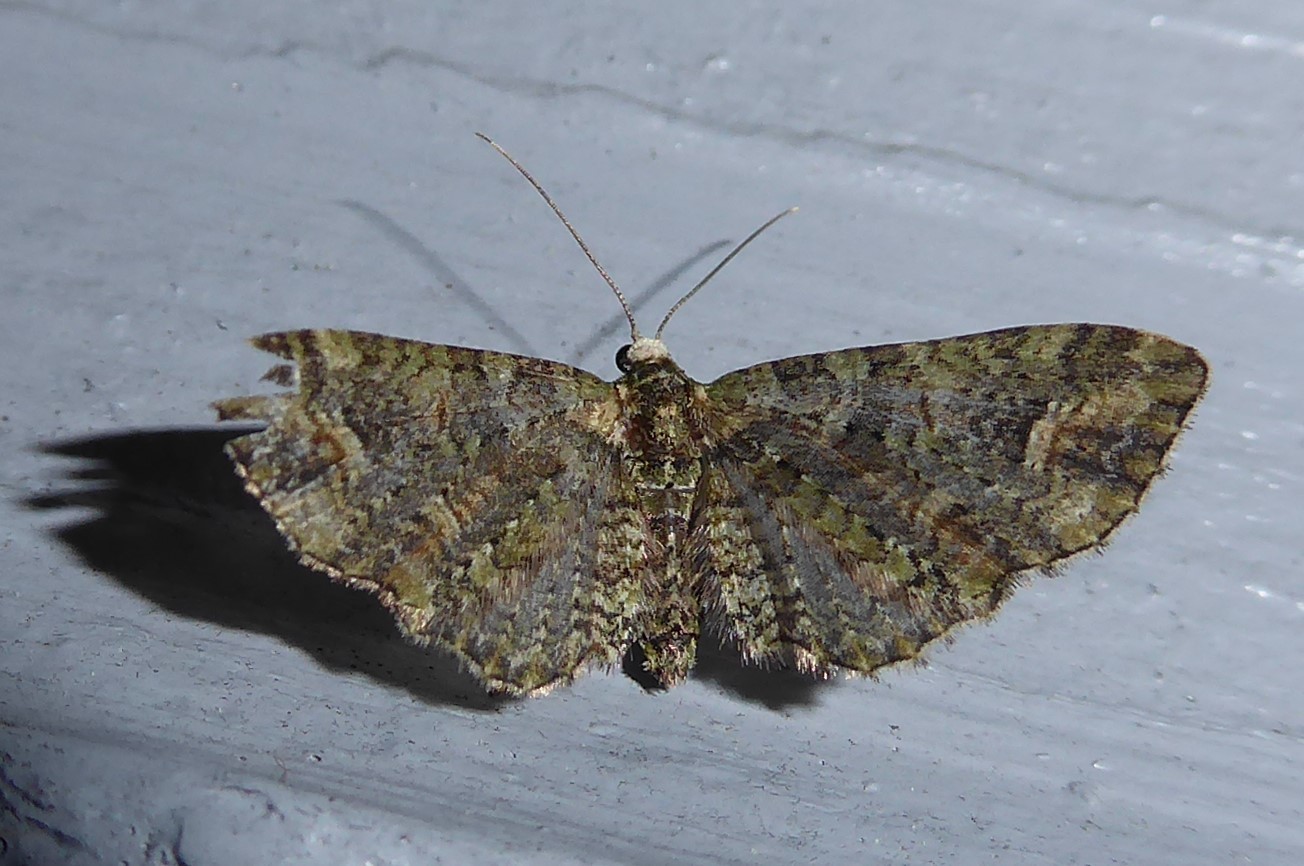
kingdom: Animalia
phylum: Arthropoda
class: Insecta
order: Lepidoptera
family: Geometridae
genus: Idaea
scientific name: Idaea mutanda
